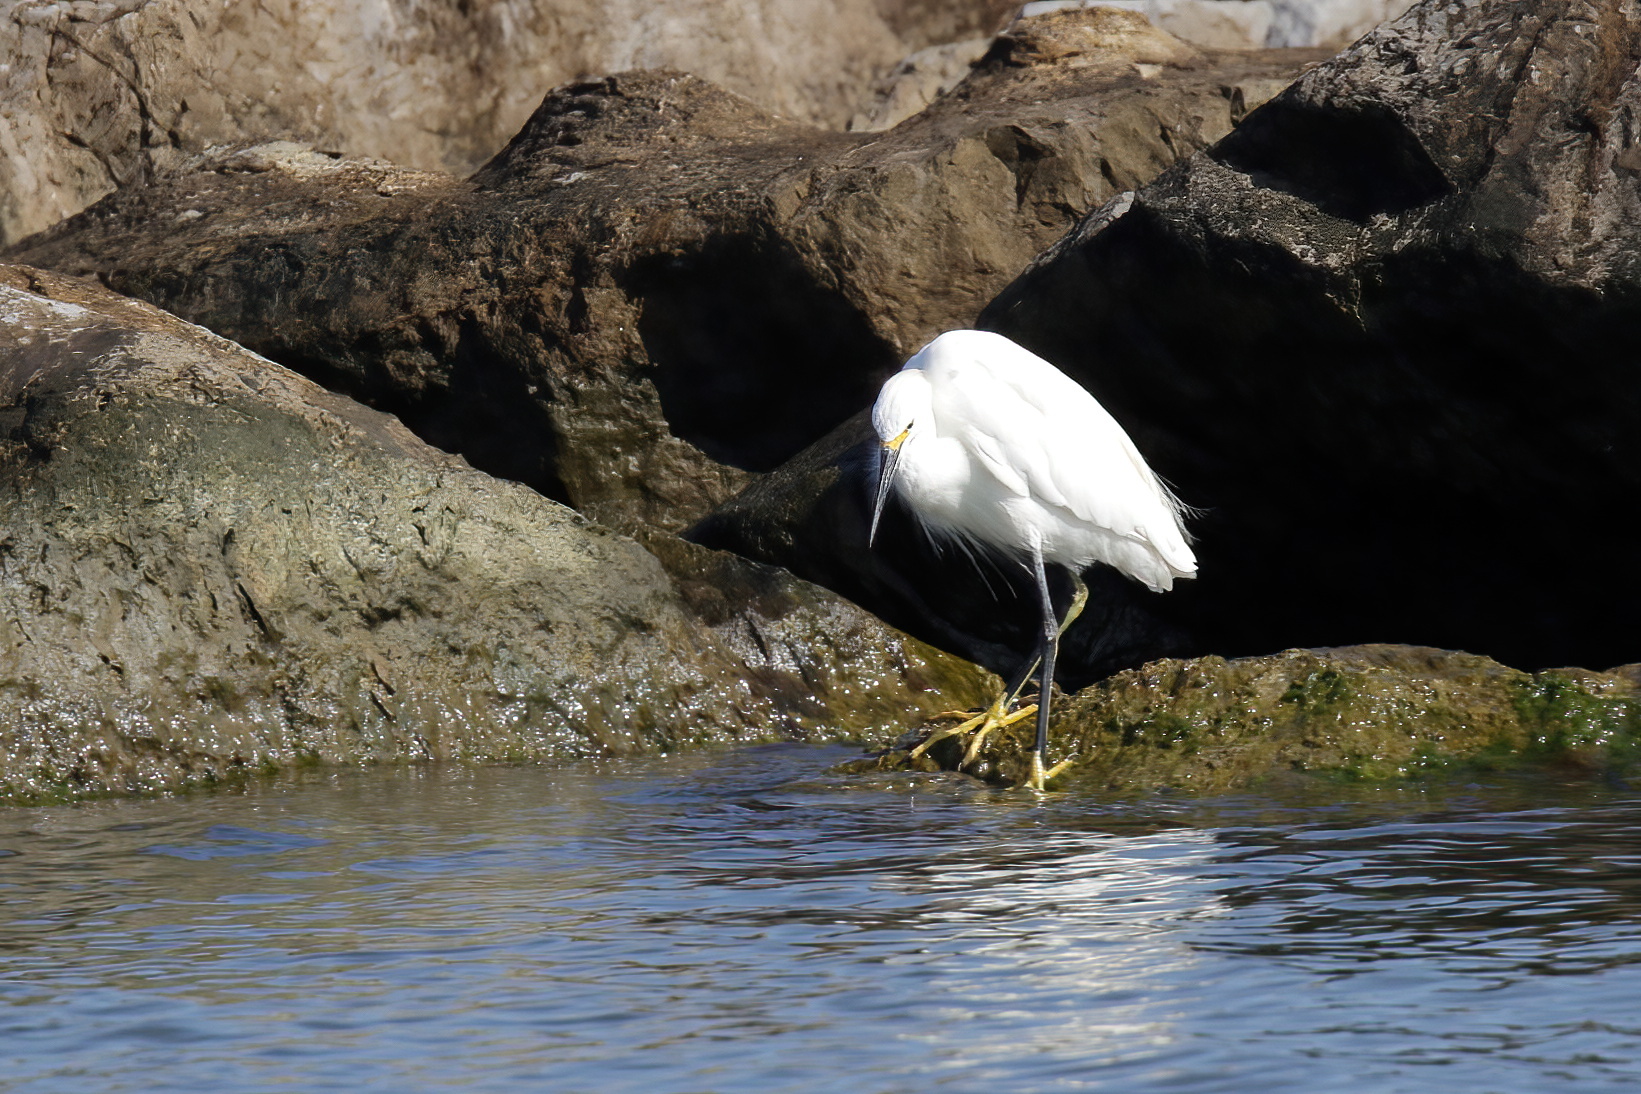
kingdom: Animalia
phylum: Chordata
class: Aves
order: Pelecaniformes
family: Ardeidae
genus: Egretta
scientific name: Egretta thula
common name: Snowy egret
